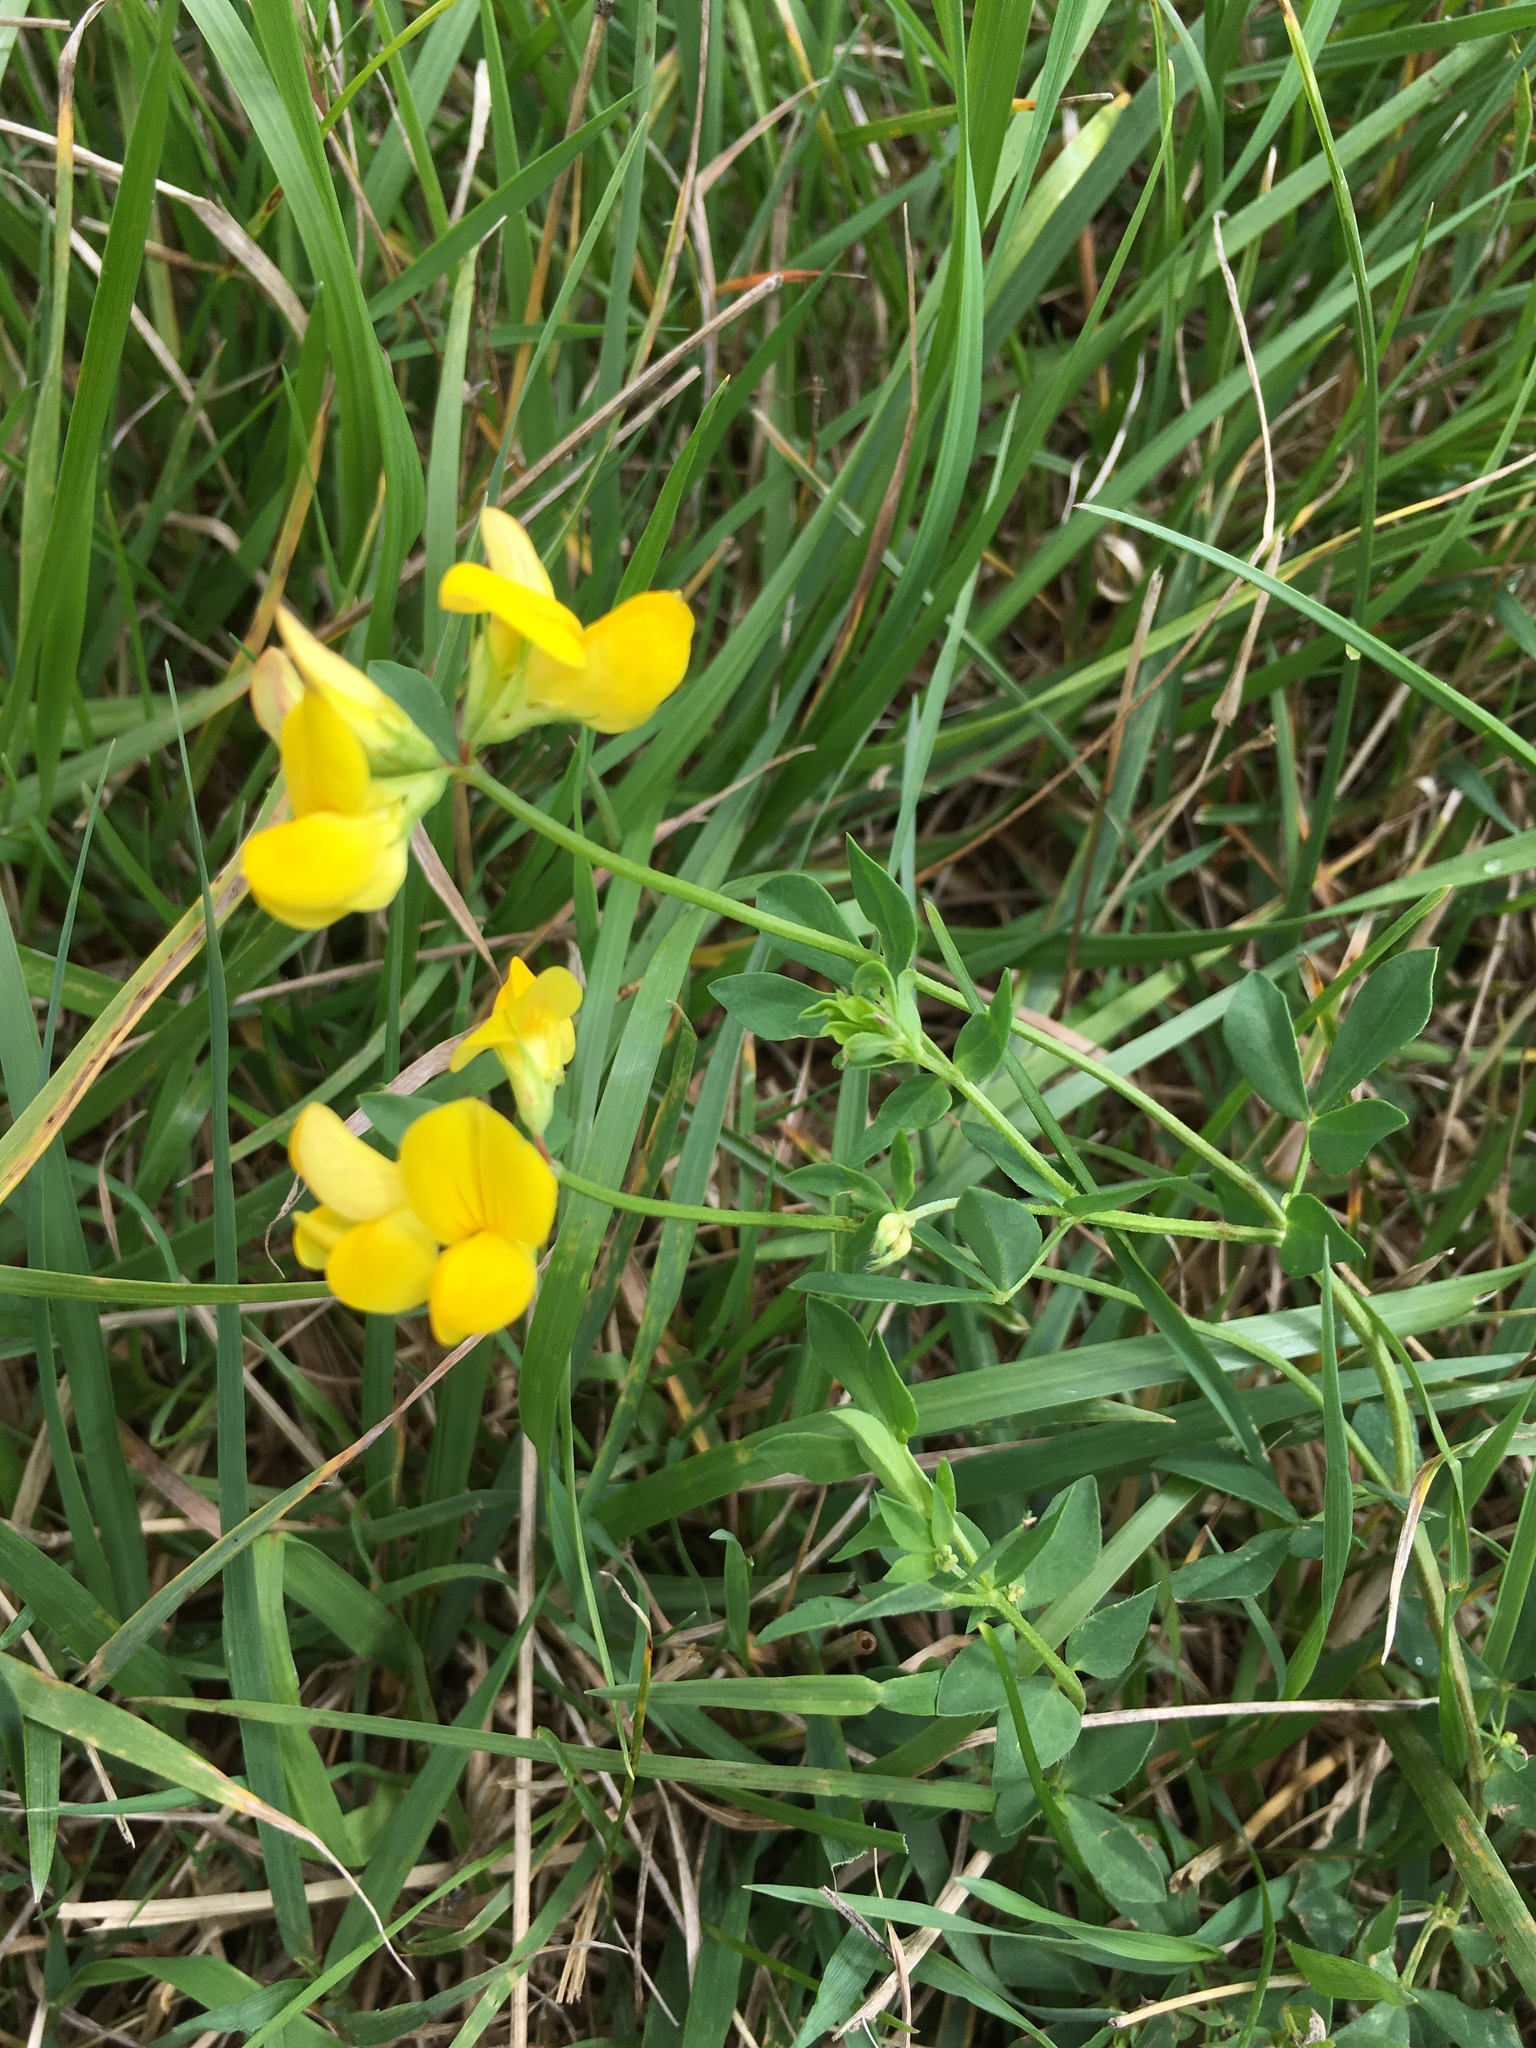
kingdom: Plantae
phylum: Tracheophyta
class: Magnoliopsida
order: Fabales
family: Fabaceae
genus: Lotus
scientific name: Lotus corniculatus
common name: Common bird's-foot-trefoil
